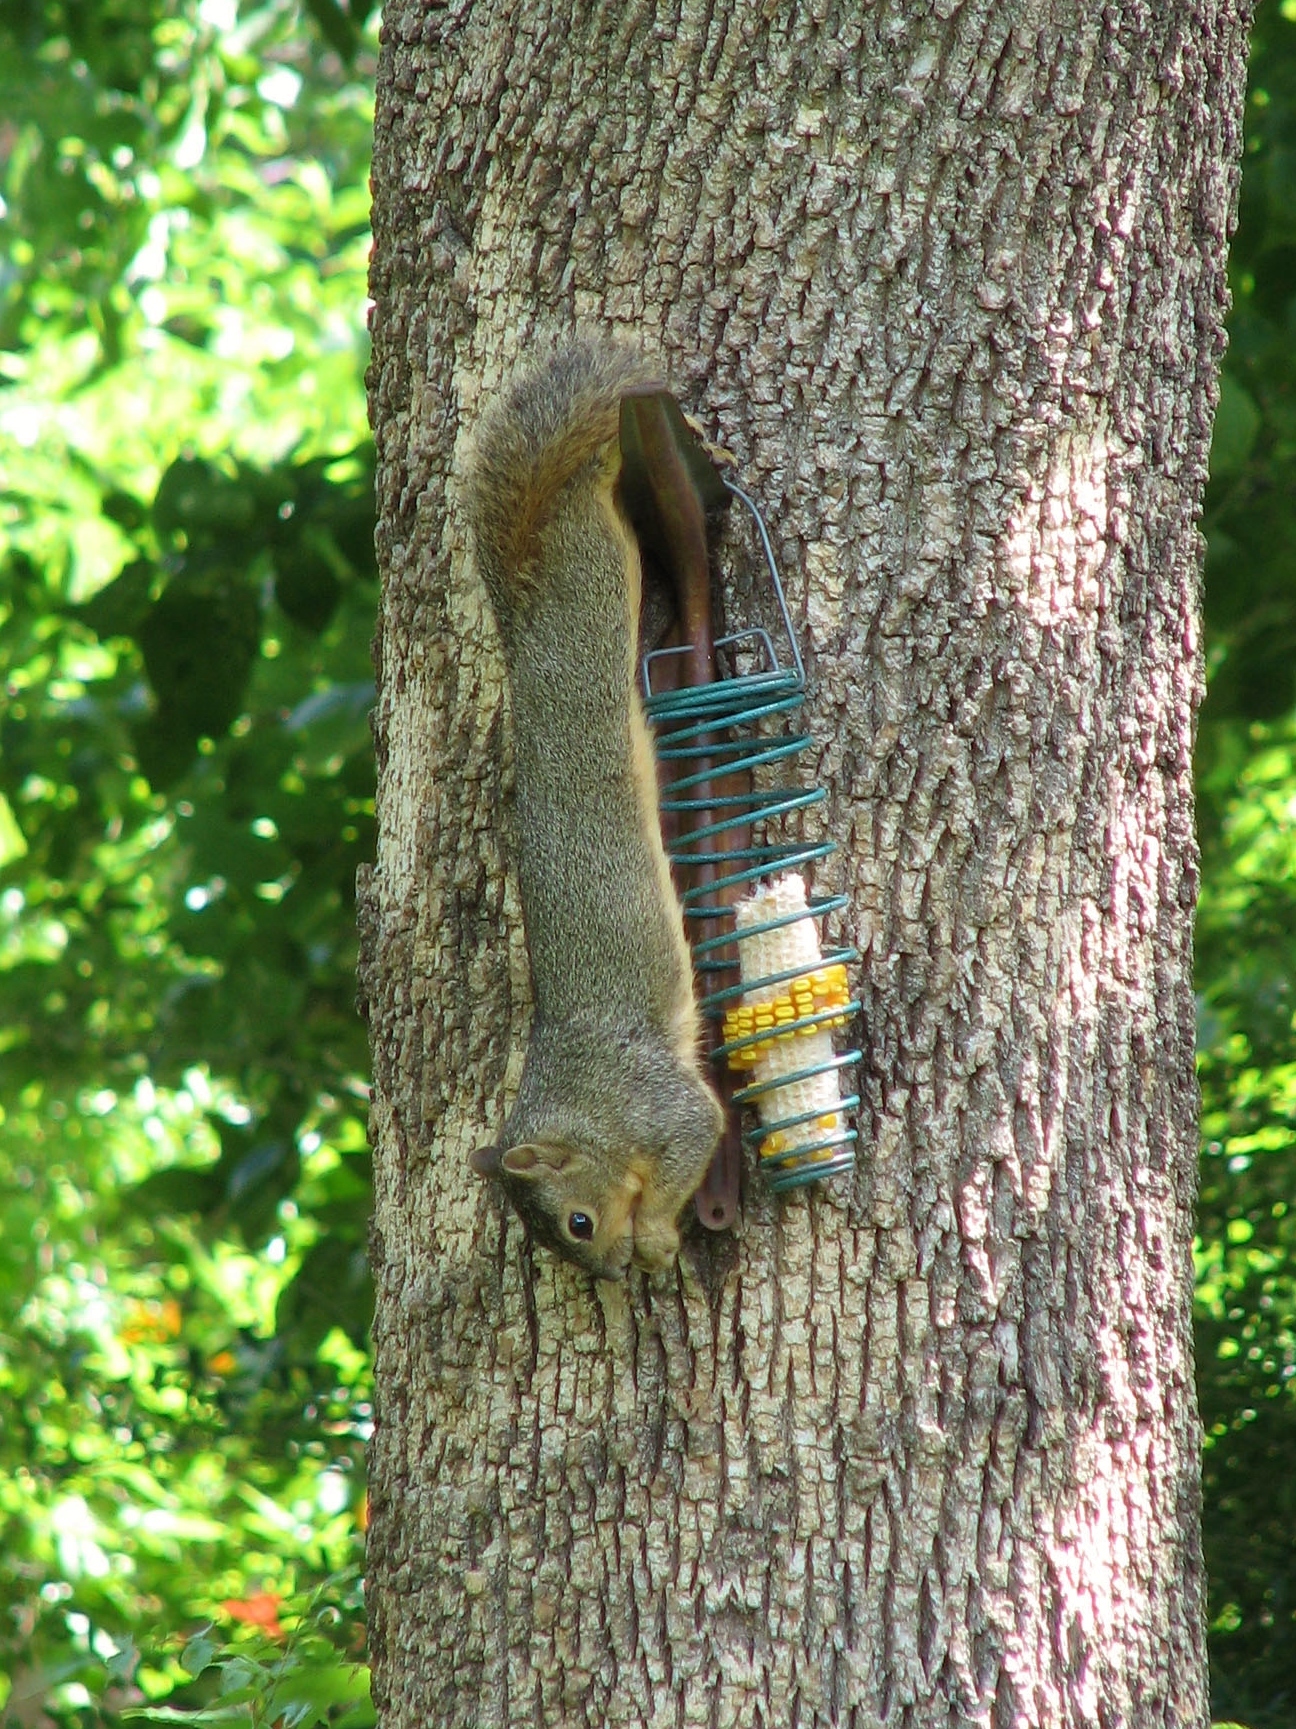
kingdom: Animalia
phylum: Chordata
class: Mammalia
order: Rodentia
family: Sciuridae
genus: Sciurus
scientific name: Sciurus niger
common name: Fox squirrel
